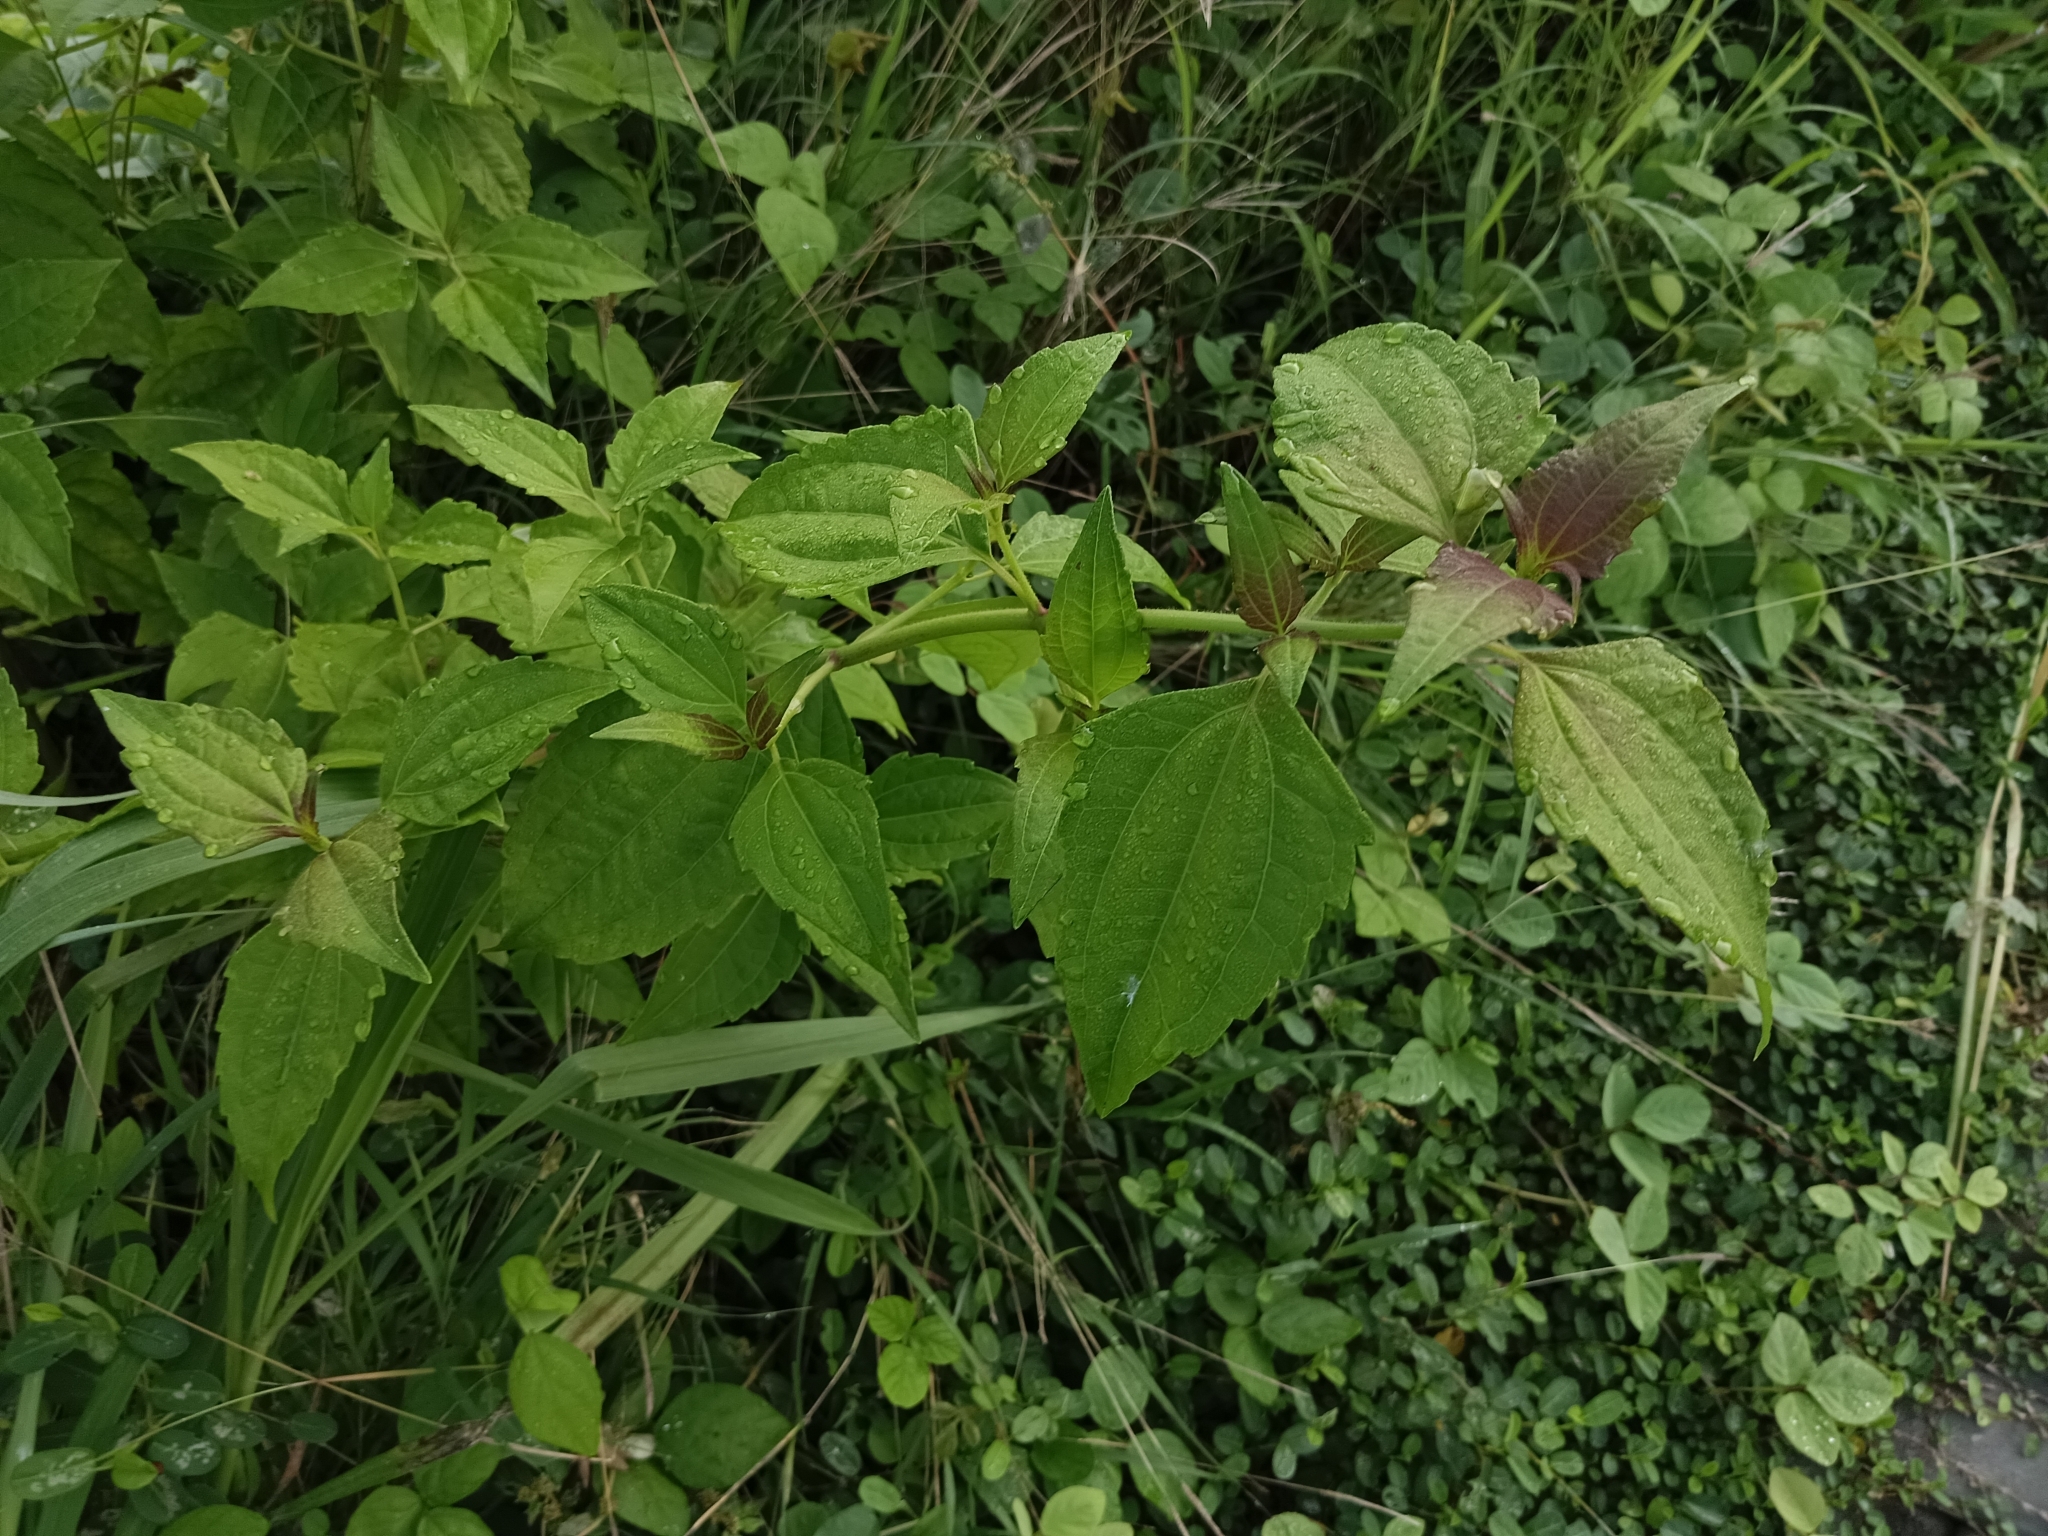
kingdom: Plantae
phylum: Tracheophyta
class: Magnoliopsida
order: Asterales
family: Asteraceae
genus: Chromolaena
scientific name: Chromolaena odorata
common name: Siamweed
